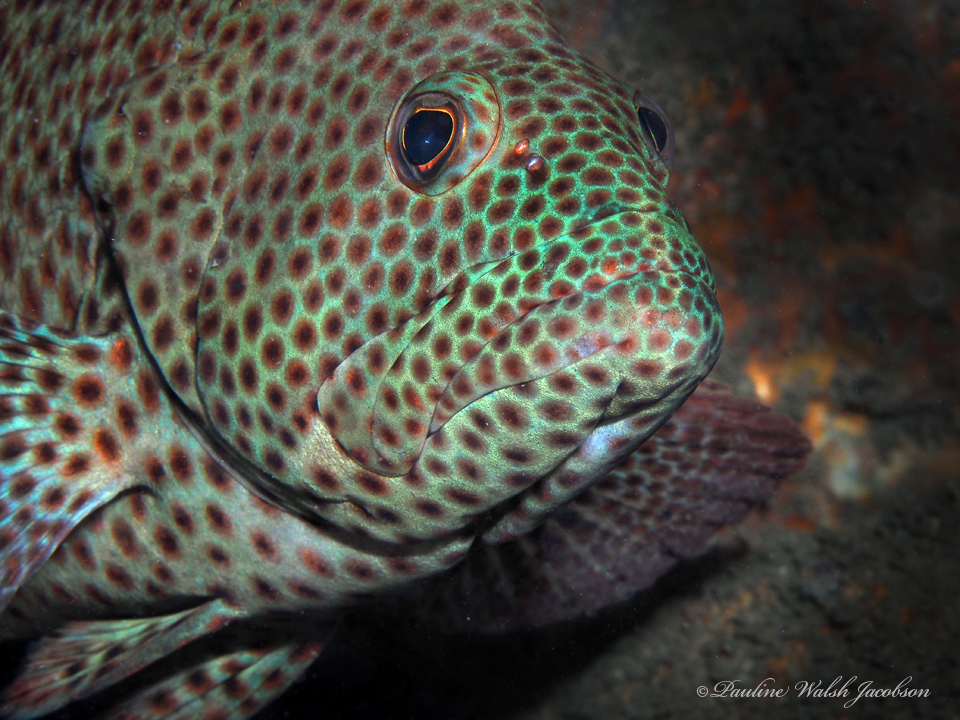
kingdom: Animalia
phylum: Chordata
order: Perciformes
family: Serranidae
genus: Cephalopholis
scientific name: Cephalopholis cruentata
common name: Graysby
